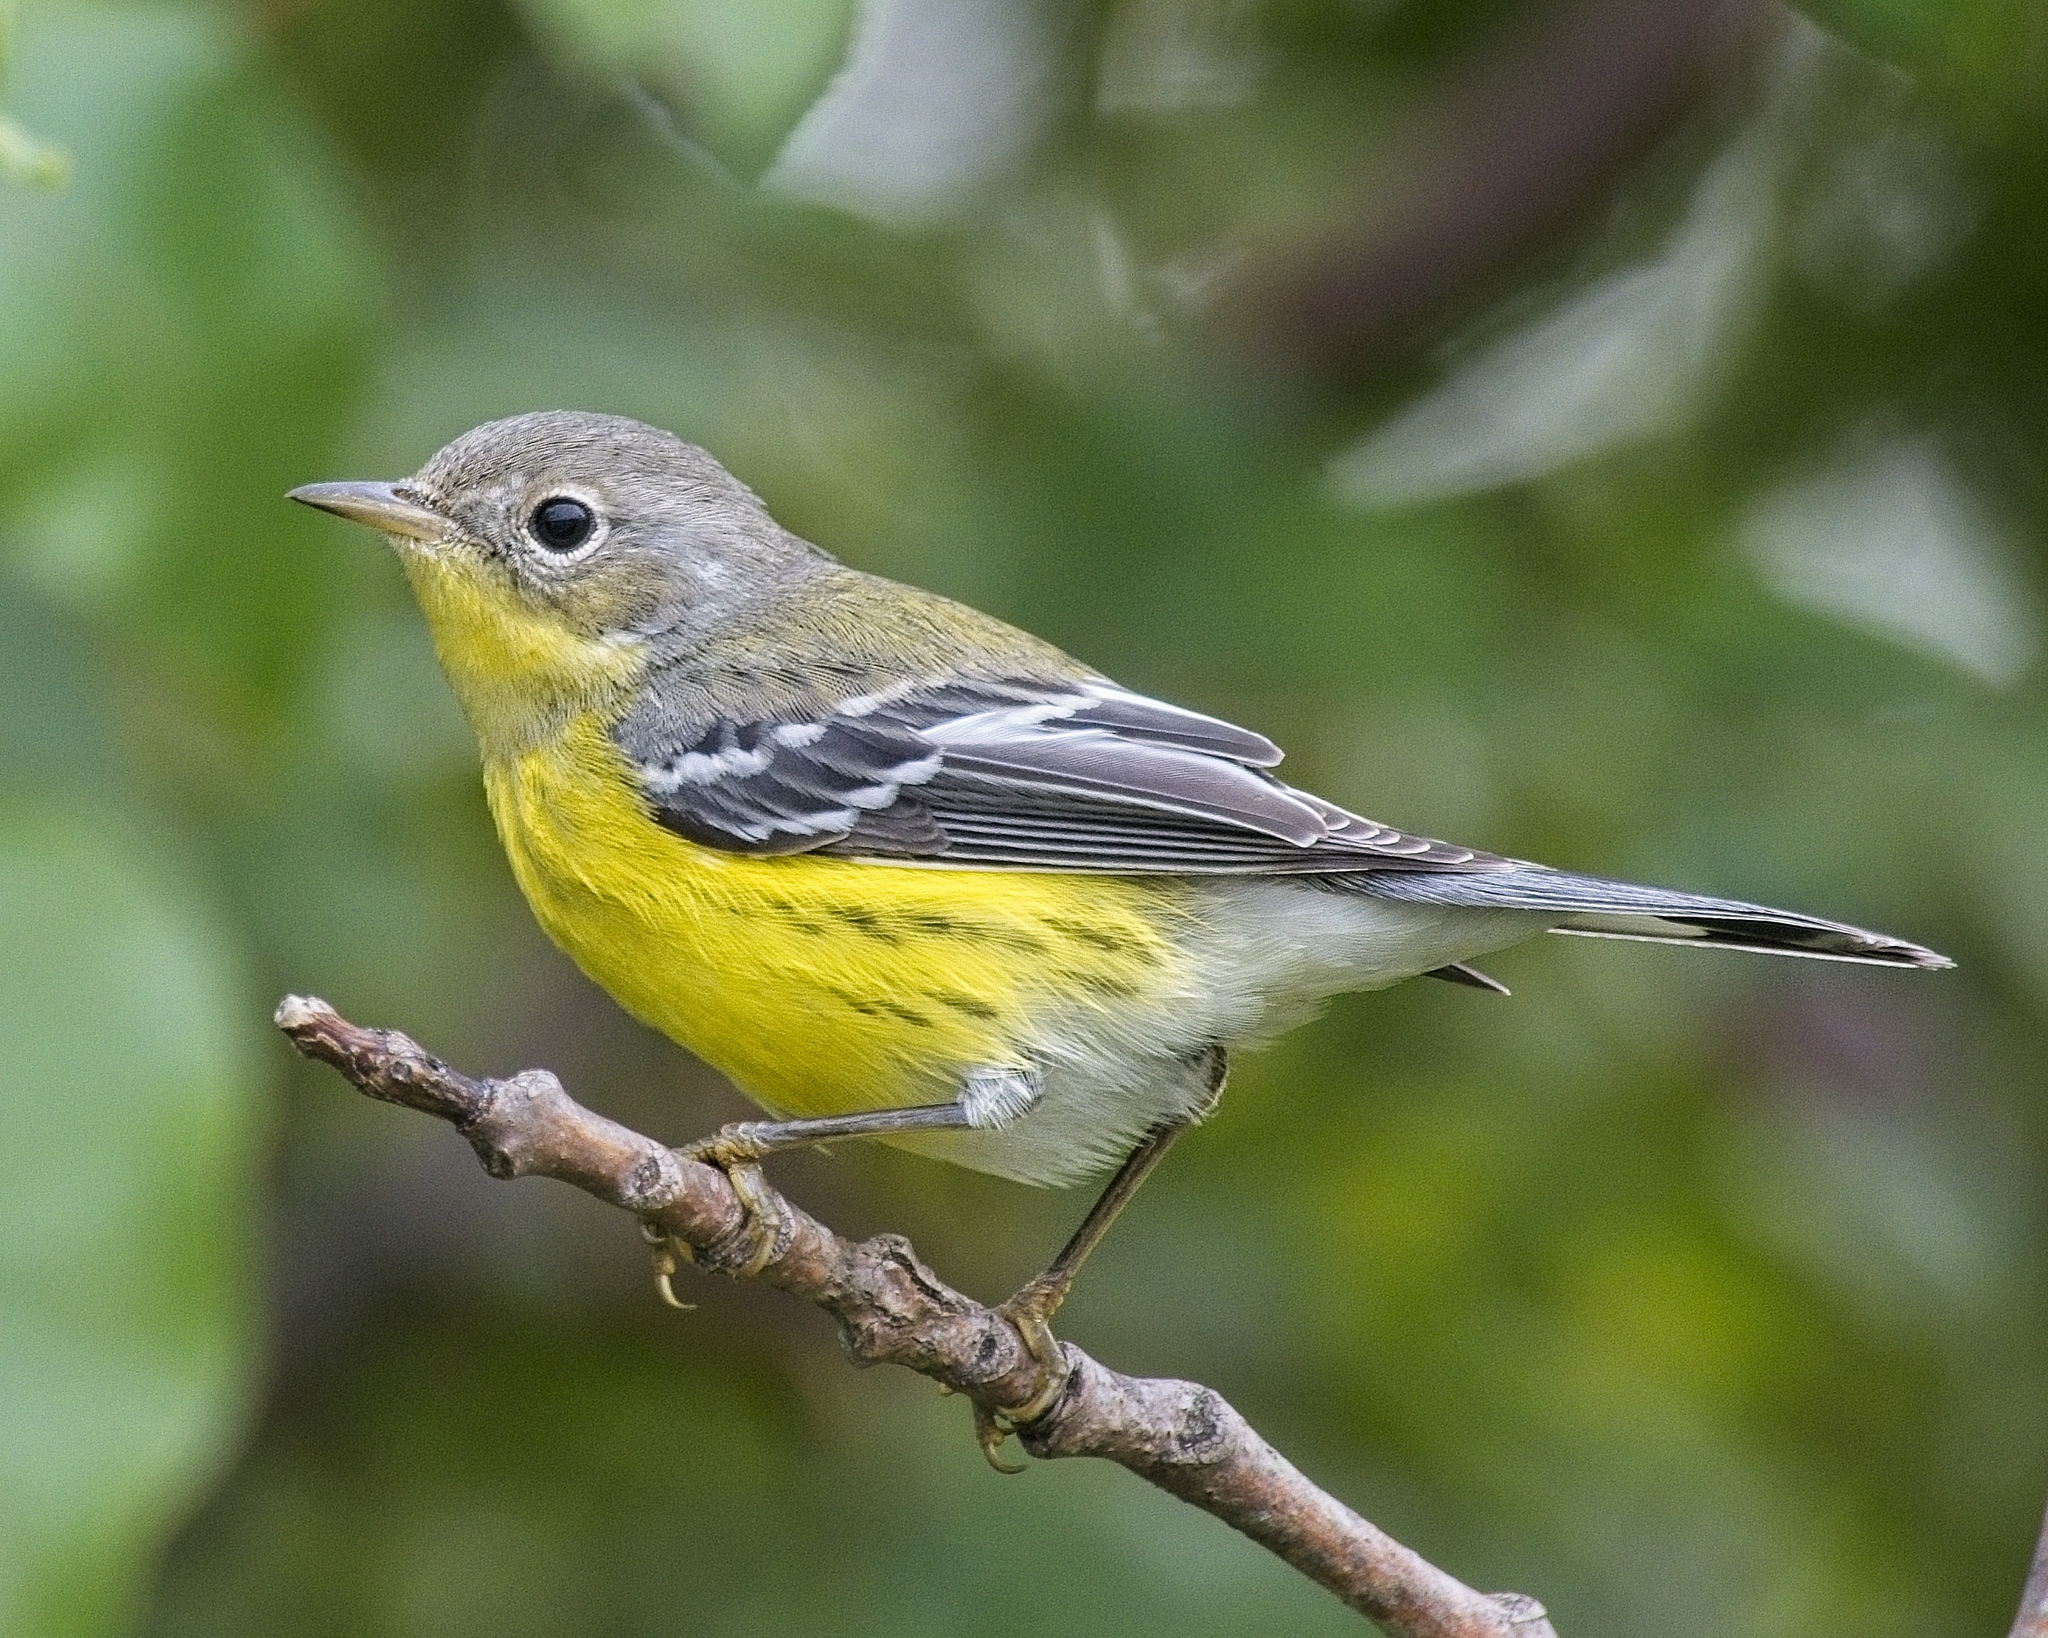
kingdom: Animalia
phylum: Chordata
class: Aves
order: Passeriformes
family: Parulidae
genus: Setophaga
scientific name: Setophaga magnolia
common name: Magnolia warbler
